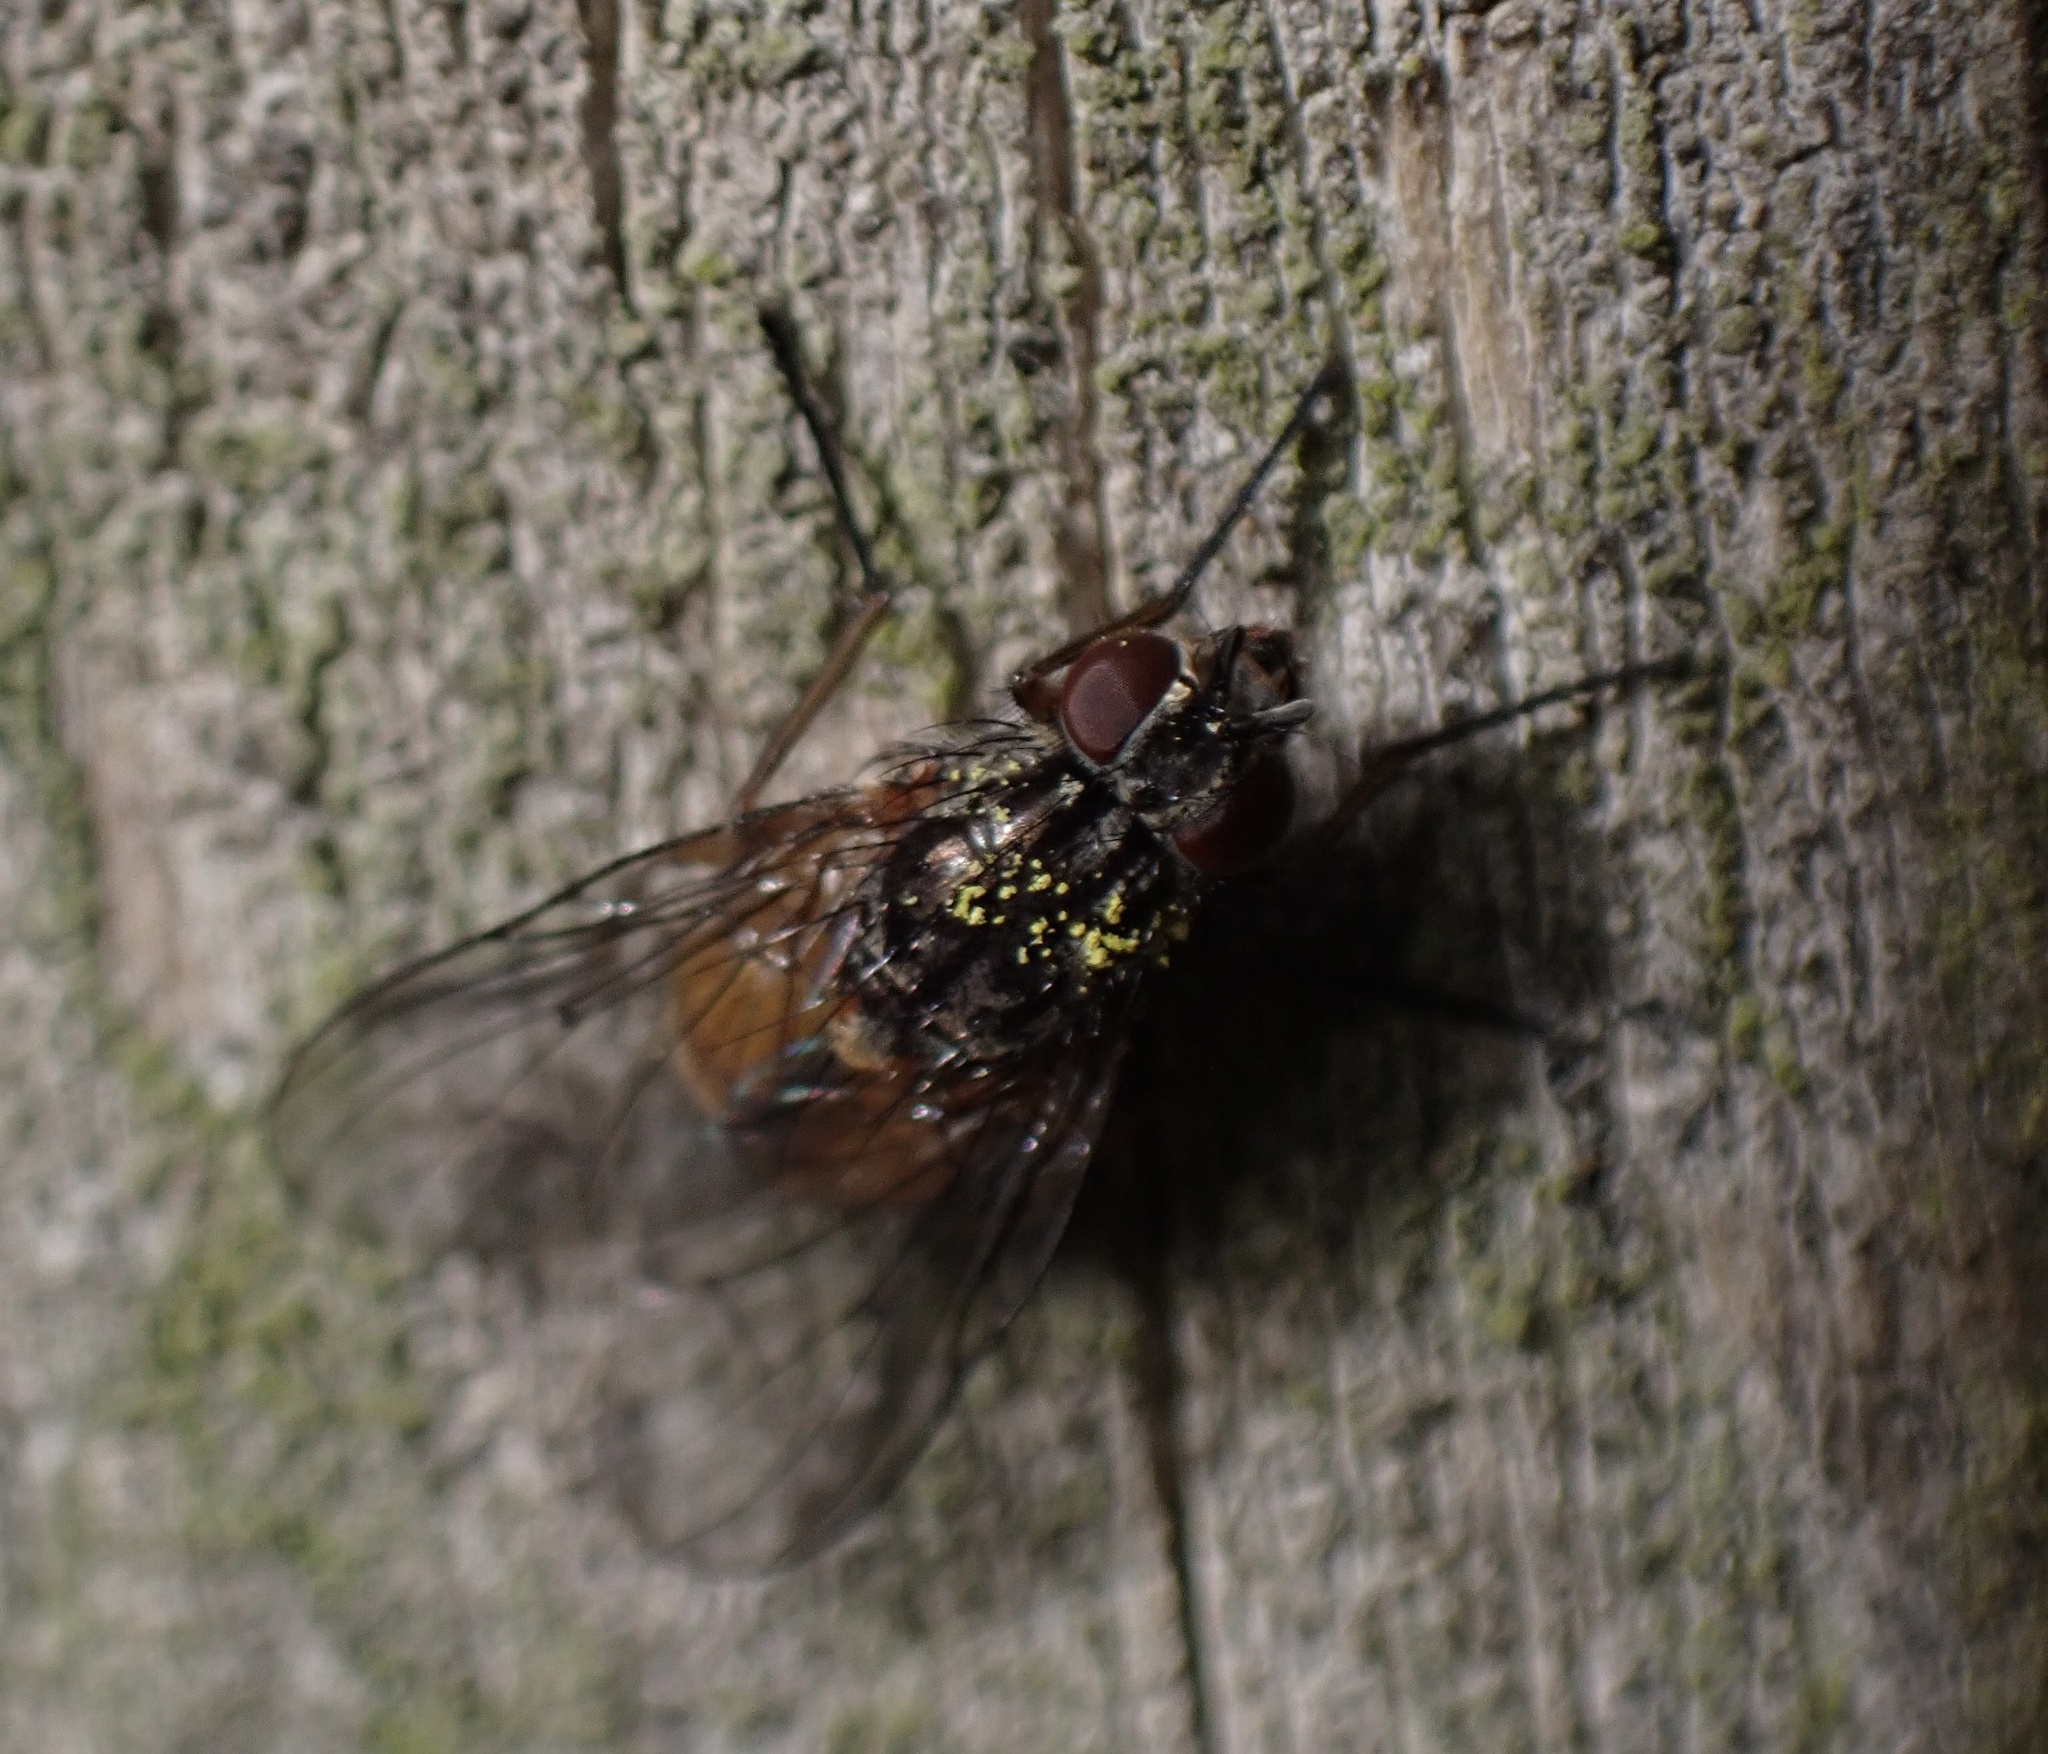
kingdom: Animalia
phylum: Arthropoda
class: Insecta
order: Diptera
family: Muscidae
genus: Phaonia
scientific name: Phaonia subventa
